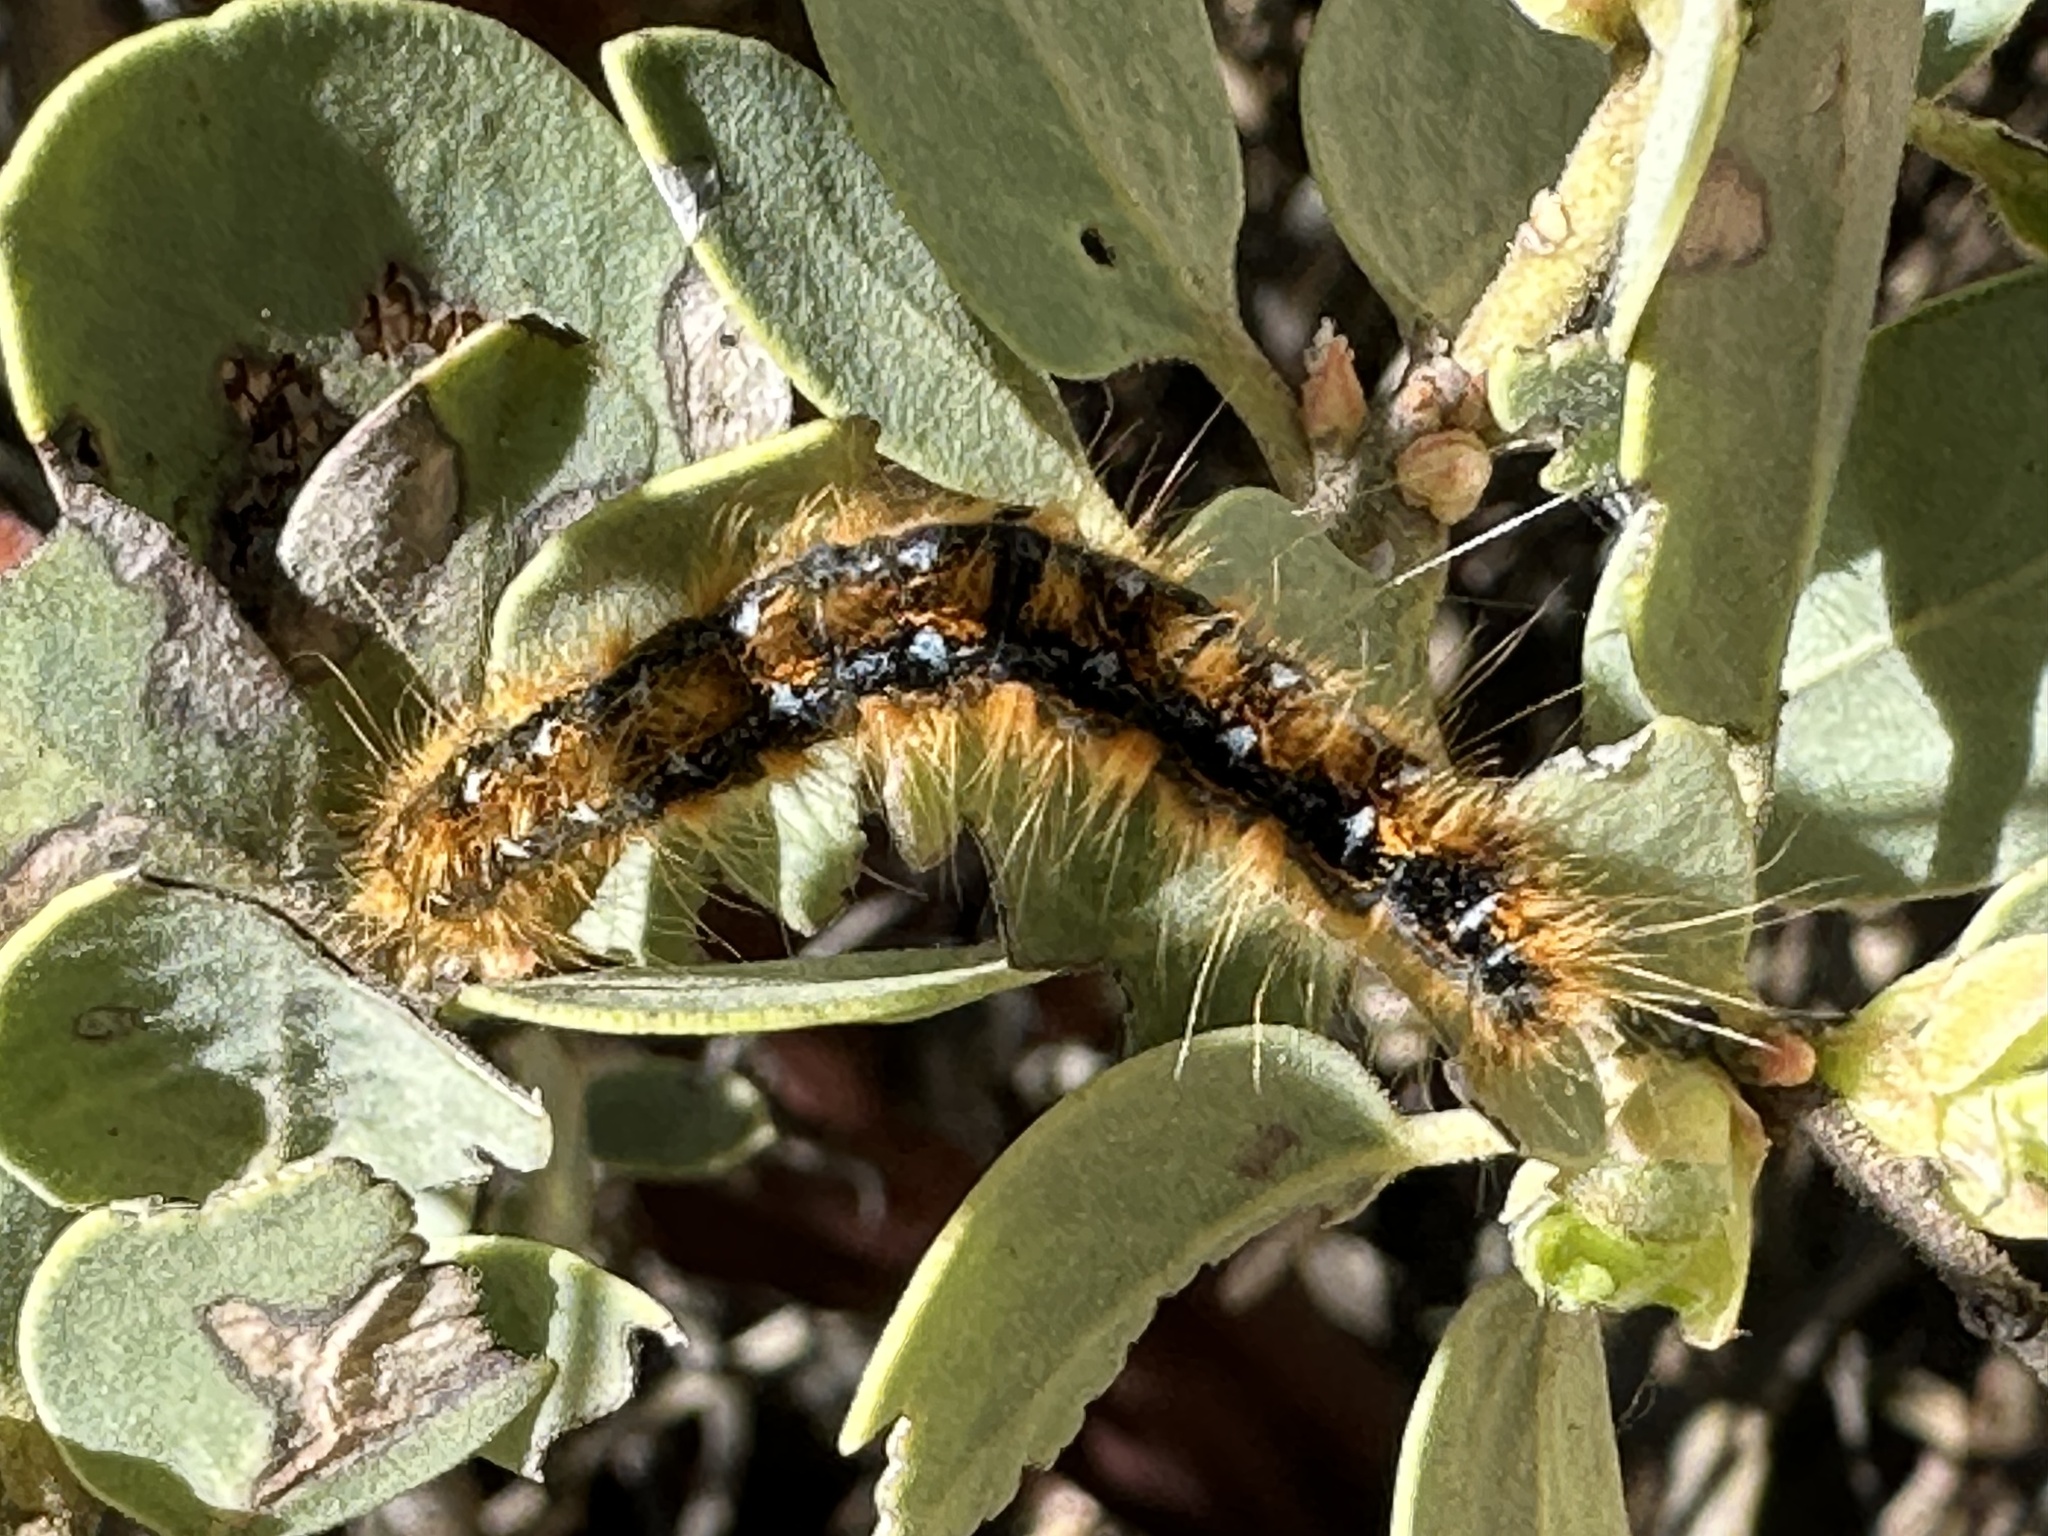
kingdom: Animalia
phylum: Arthropoda
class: Insecta
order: Lepidoptera
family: Lasiocampidae
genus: Malacosoma
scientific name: Malacosoma constricta
